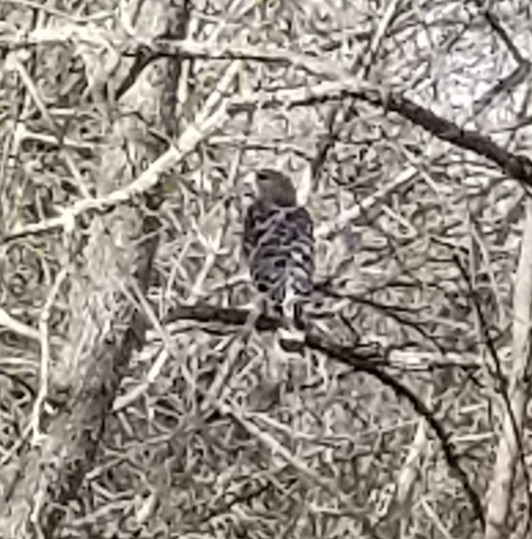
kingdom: Animalia
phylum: Chordata
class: Aves
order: Accipitriformes
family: Accipitridae
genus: Buteo
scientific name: Buteo lineatus
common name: Red-shouldered hawk
